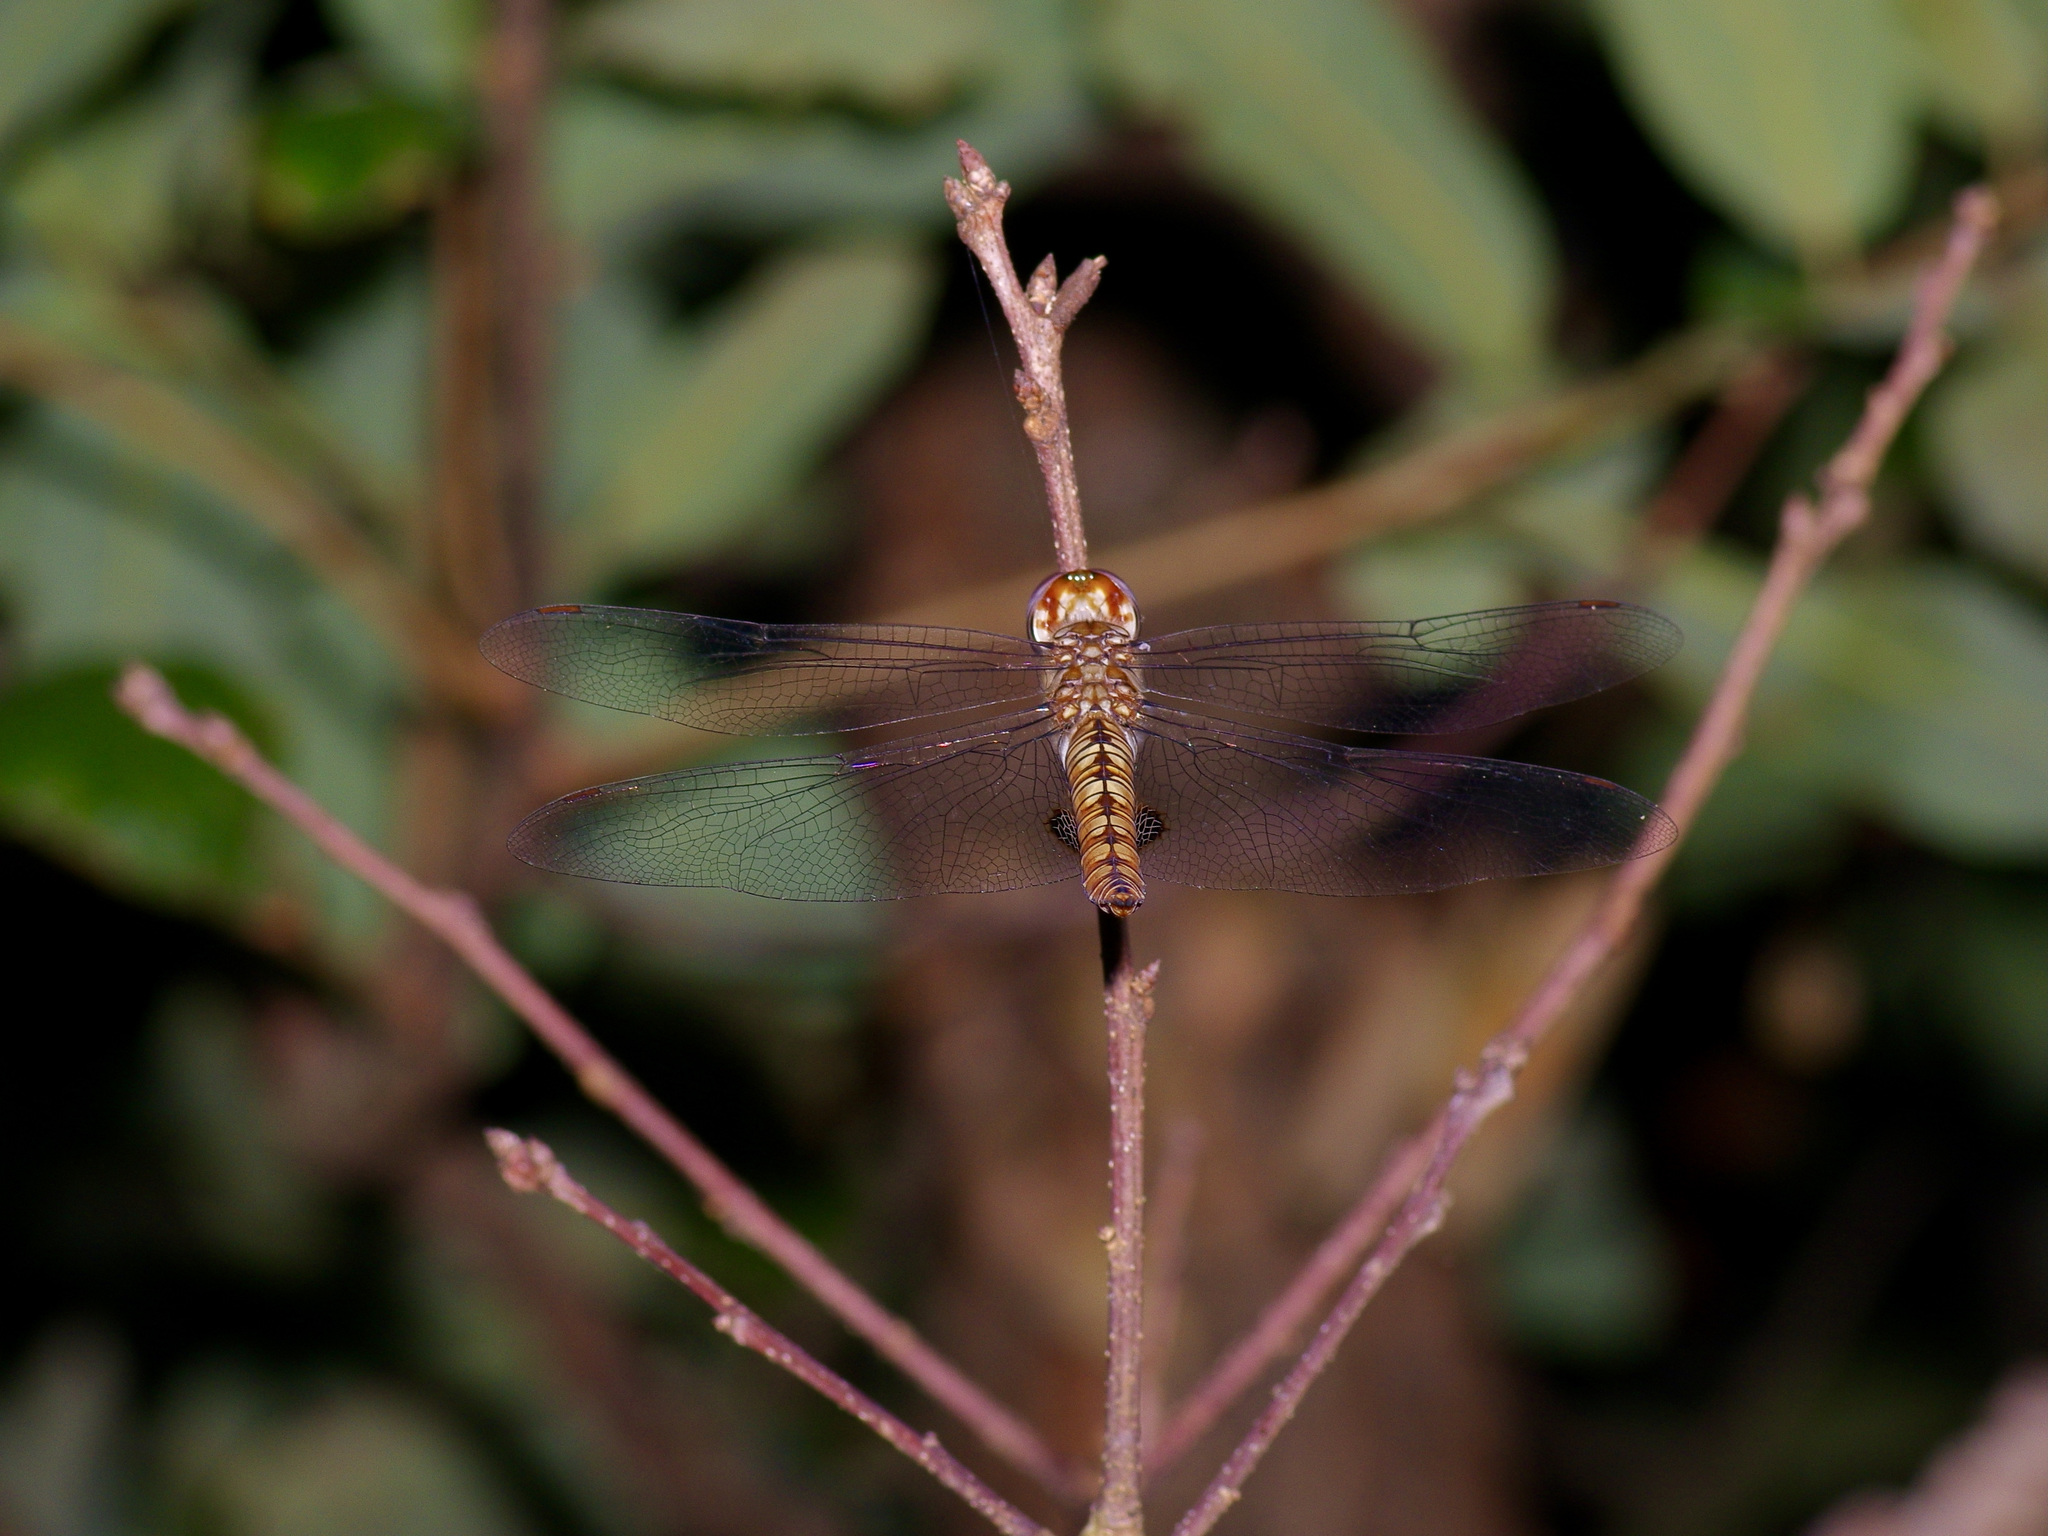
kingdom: Animalia
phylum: Arthropoda
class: Insecta
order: Odonata
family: Libellulidae
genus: Pantala
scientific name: Pantala hymenaea
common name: Spot-winged glider
